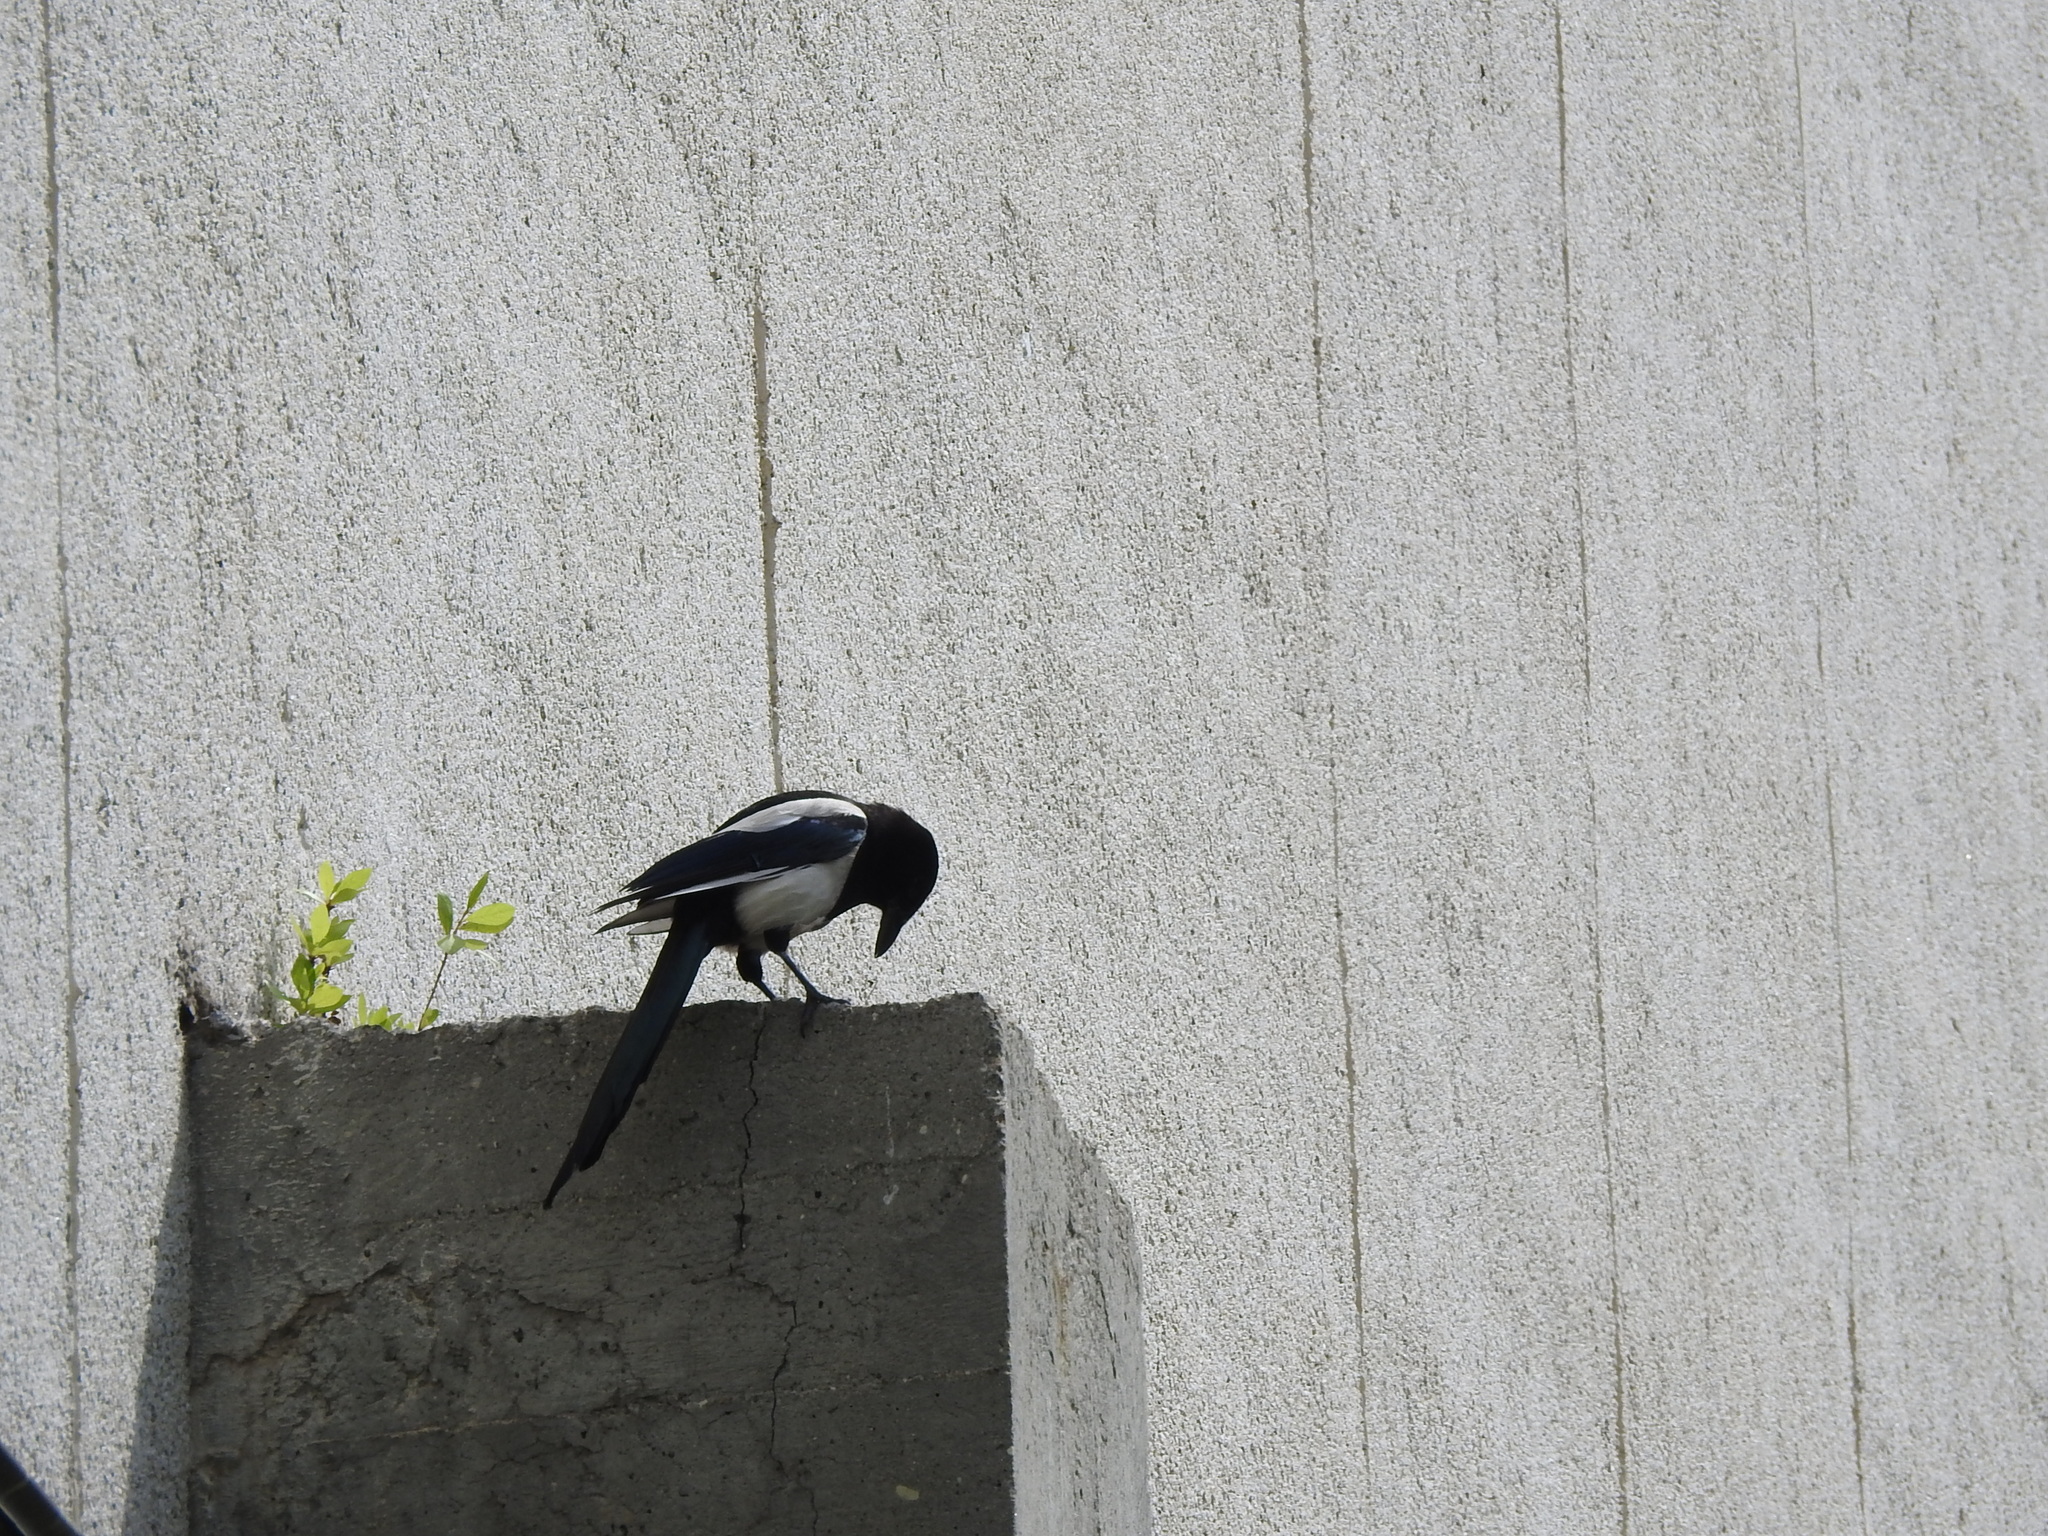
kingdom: Animalia
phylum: Chordata
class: Aves
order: Passeriformes
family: Corvidae
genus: Pica
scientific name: Pica pica
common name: Eurasian magpie
